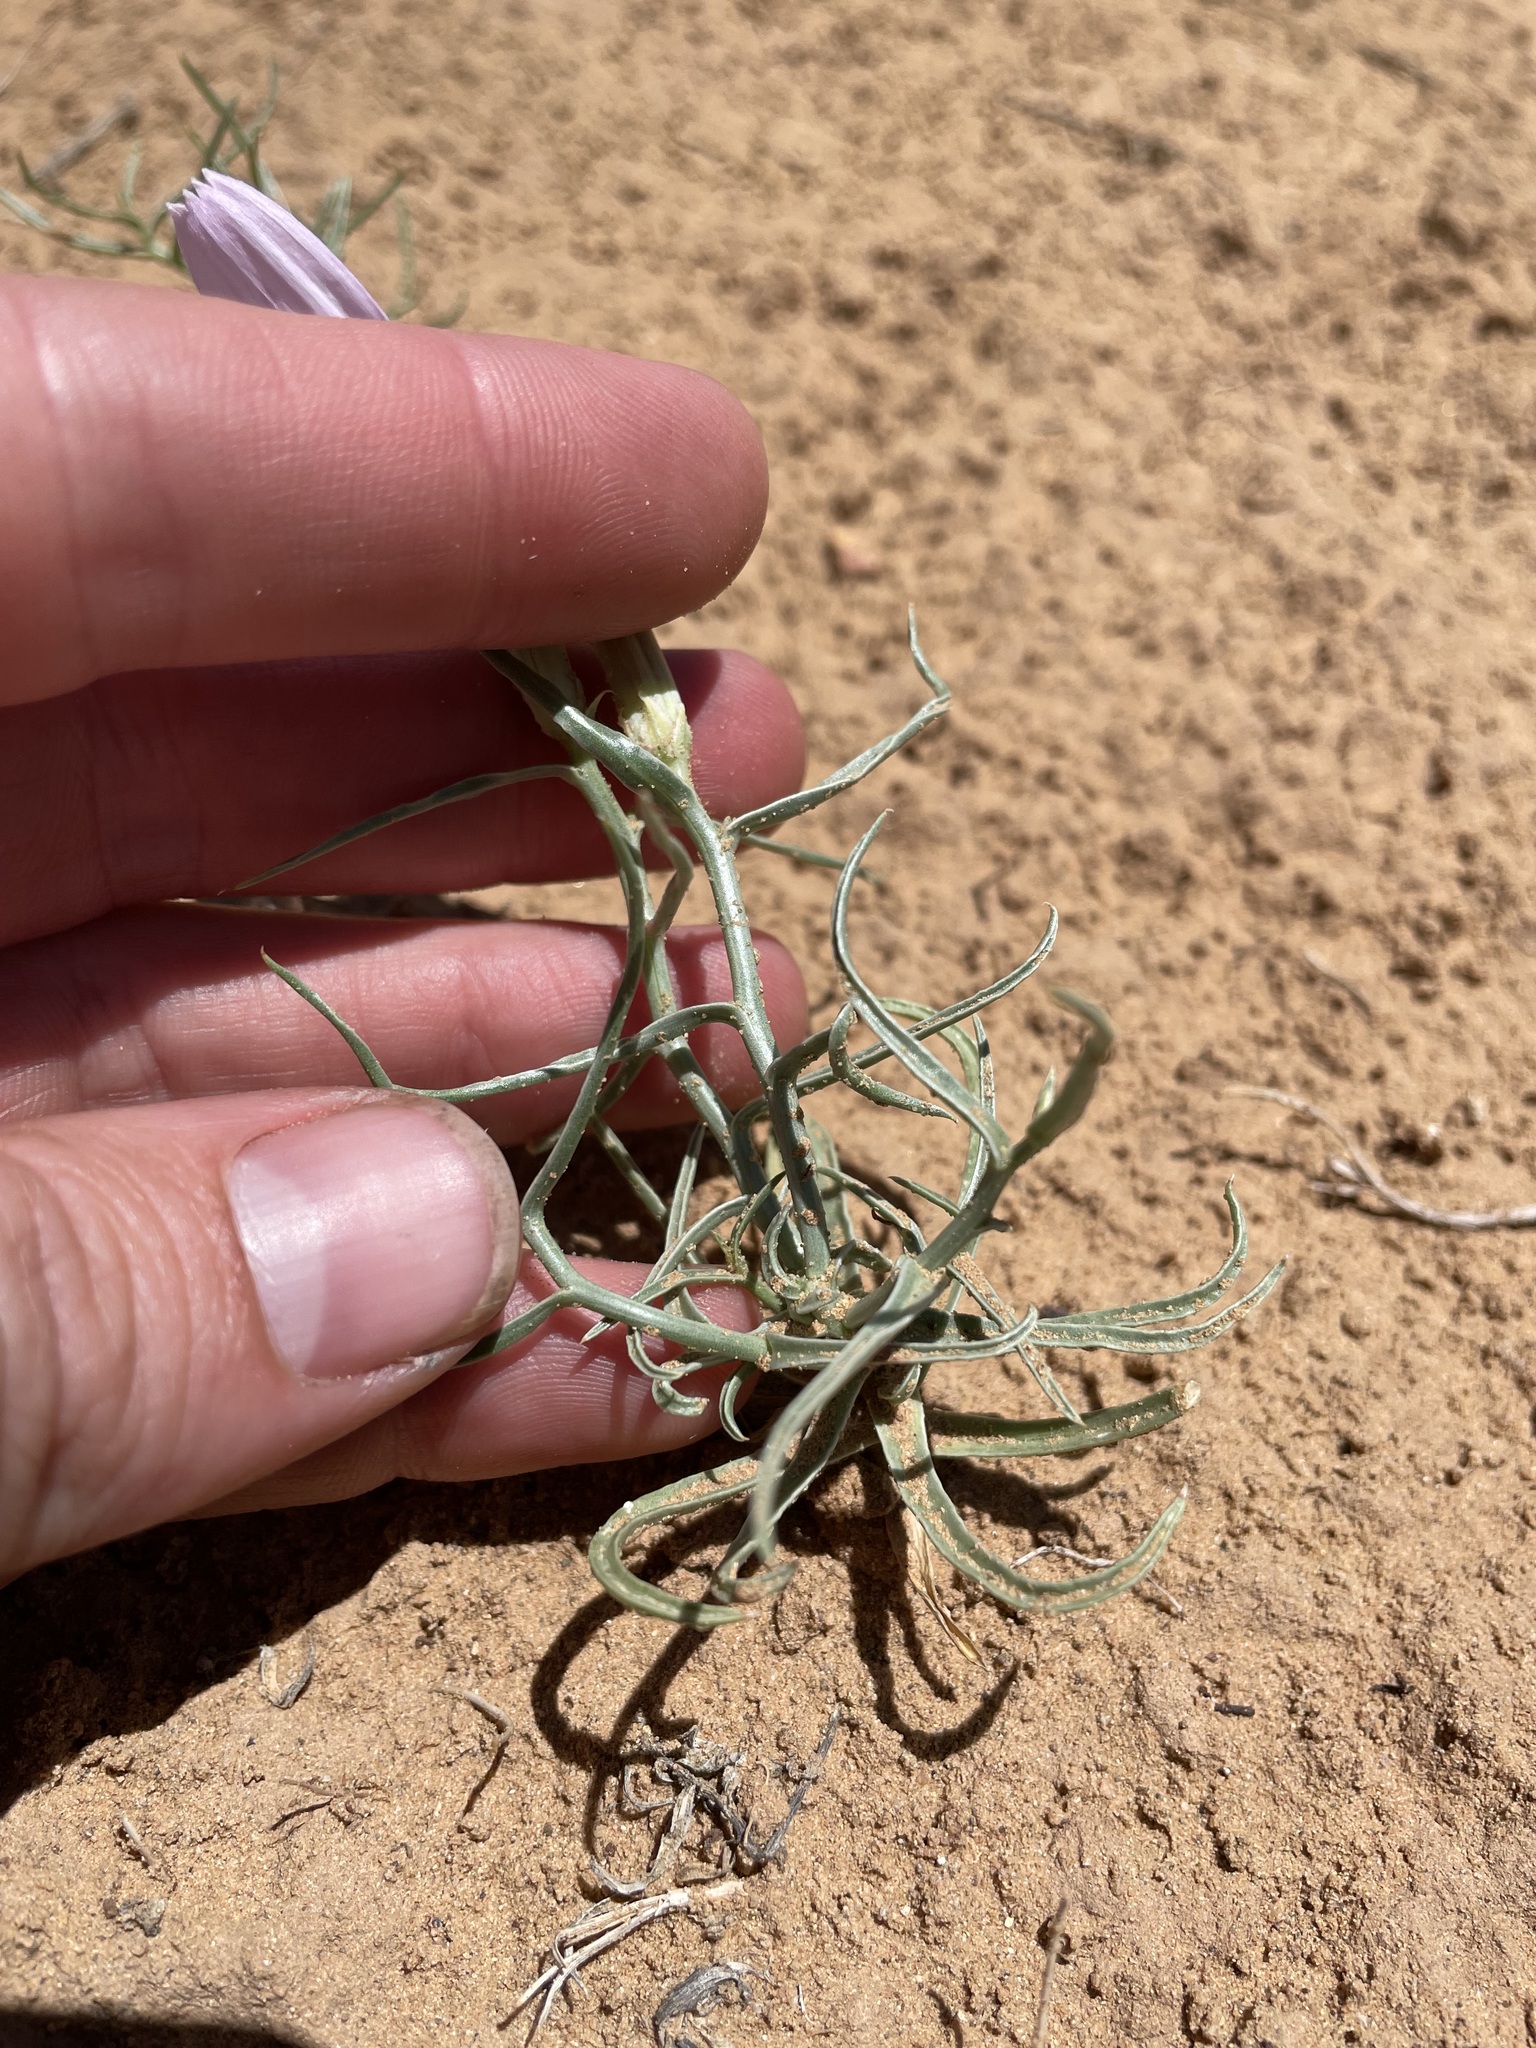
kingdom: Plantae
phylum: Tracheophyta
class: Magnoliopsida
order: Asterales
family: Asteraceae
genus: Lygodesmia
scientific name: Lygodesmia grandiflora
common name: Showy rush-pink
